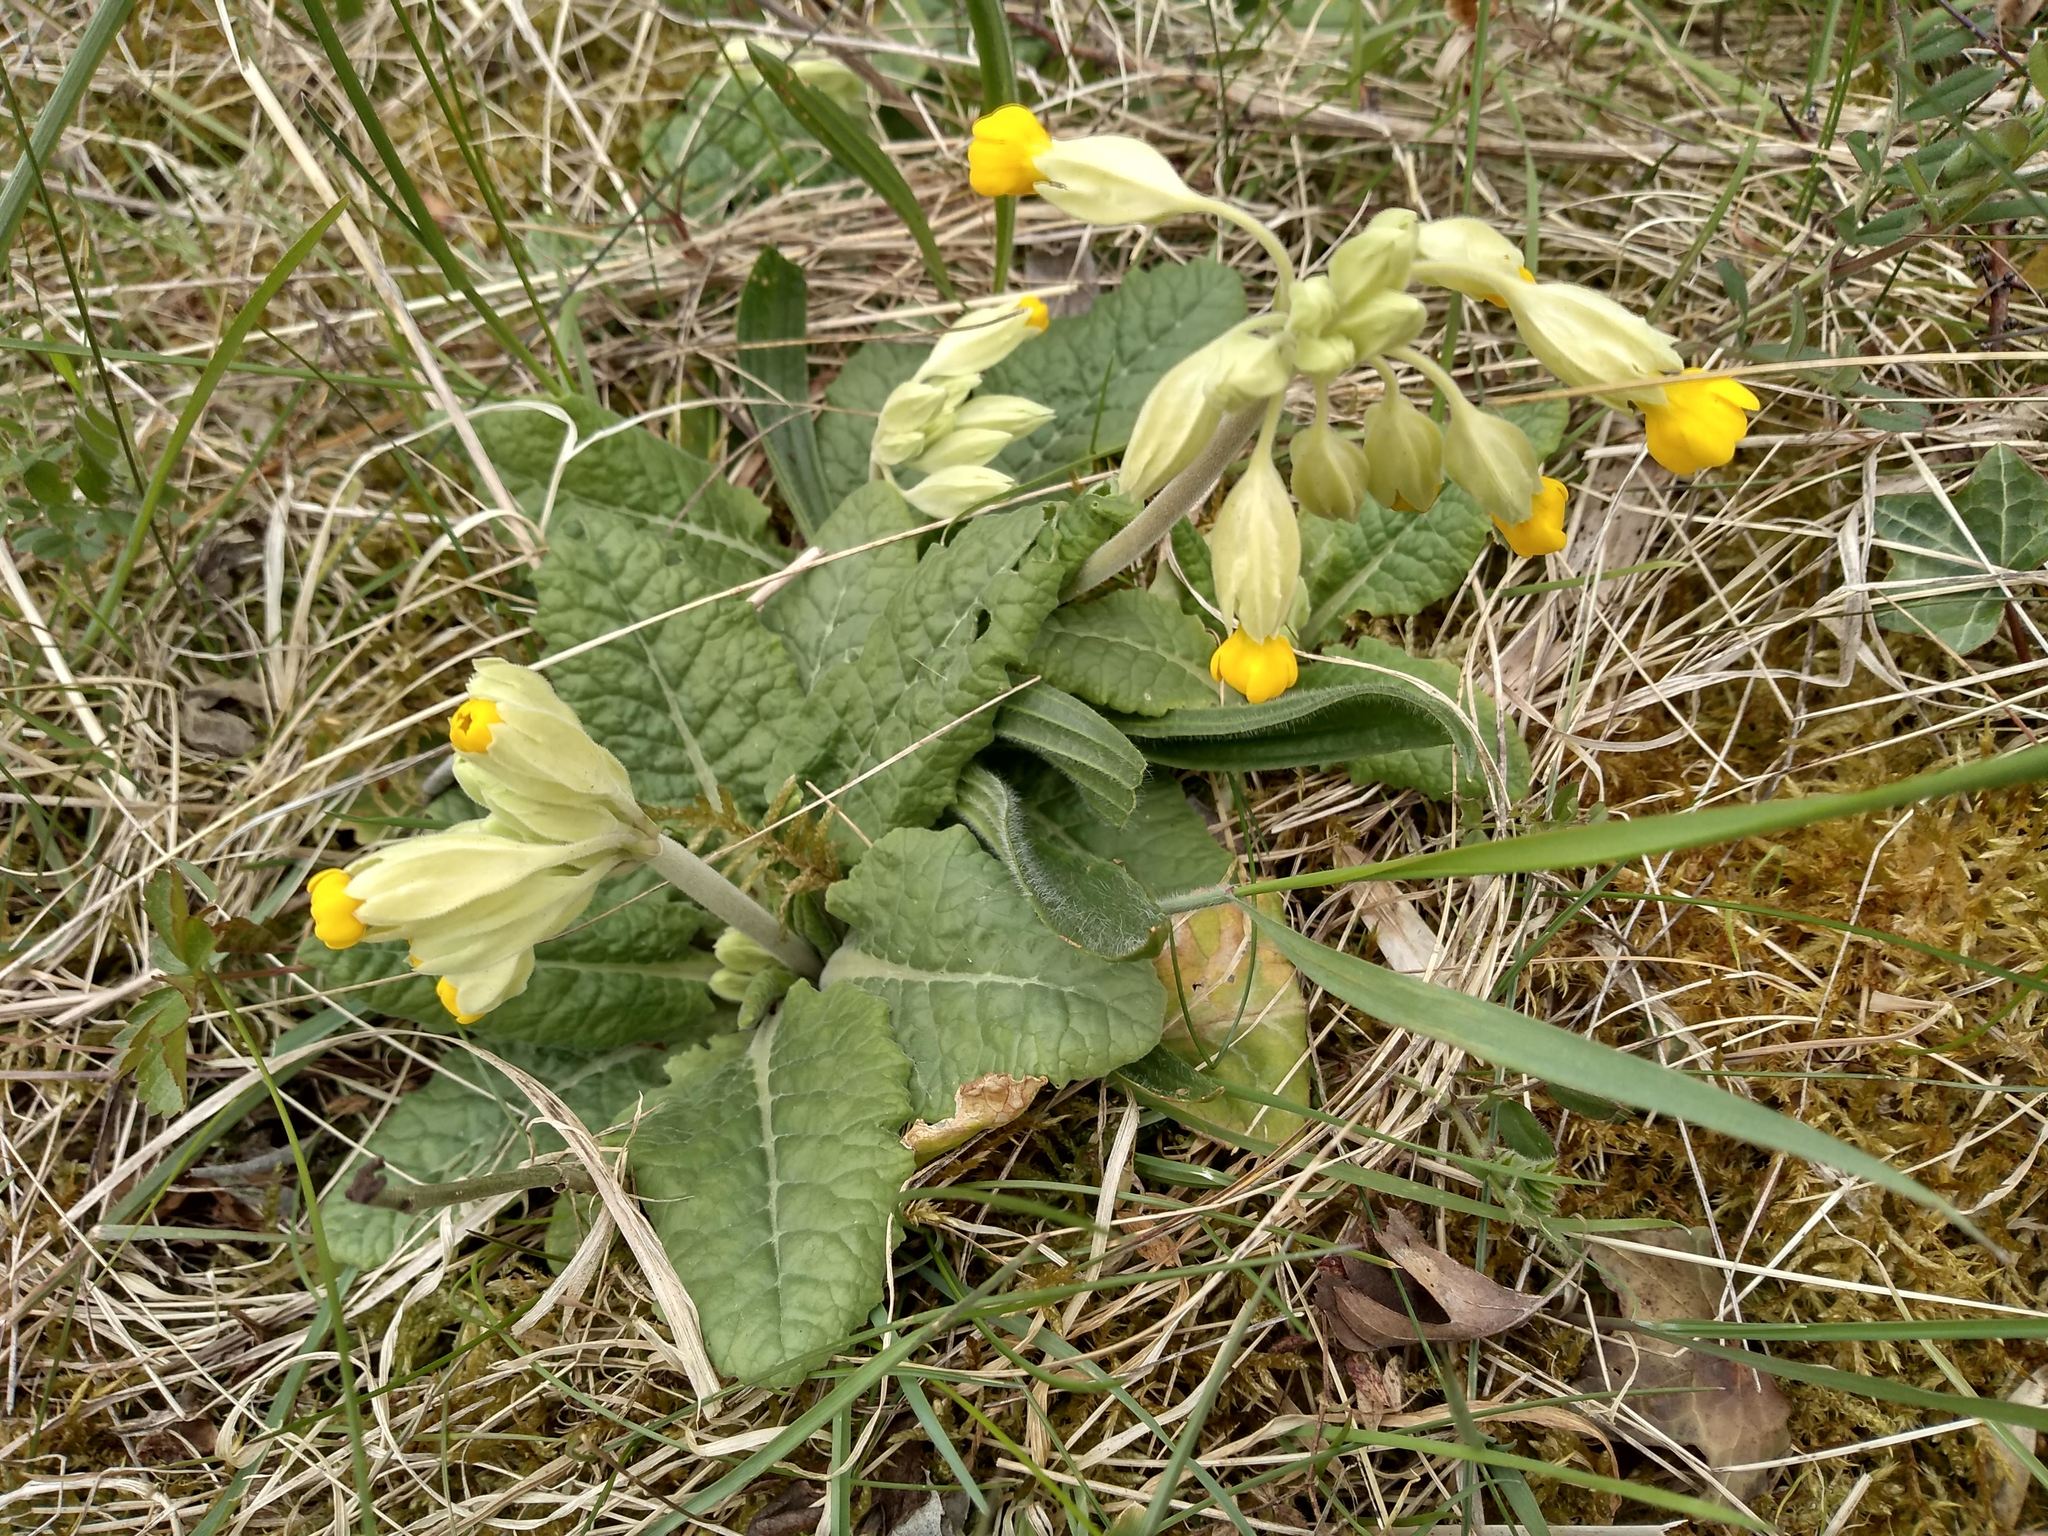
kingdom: Plantae
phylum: Tracheophyta
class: Magnoliopsida
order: Ericales
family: Primulaceae
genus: Primula
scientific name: Primula veris
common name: Cowslip
